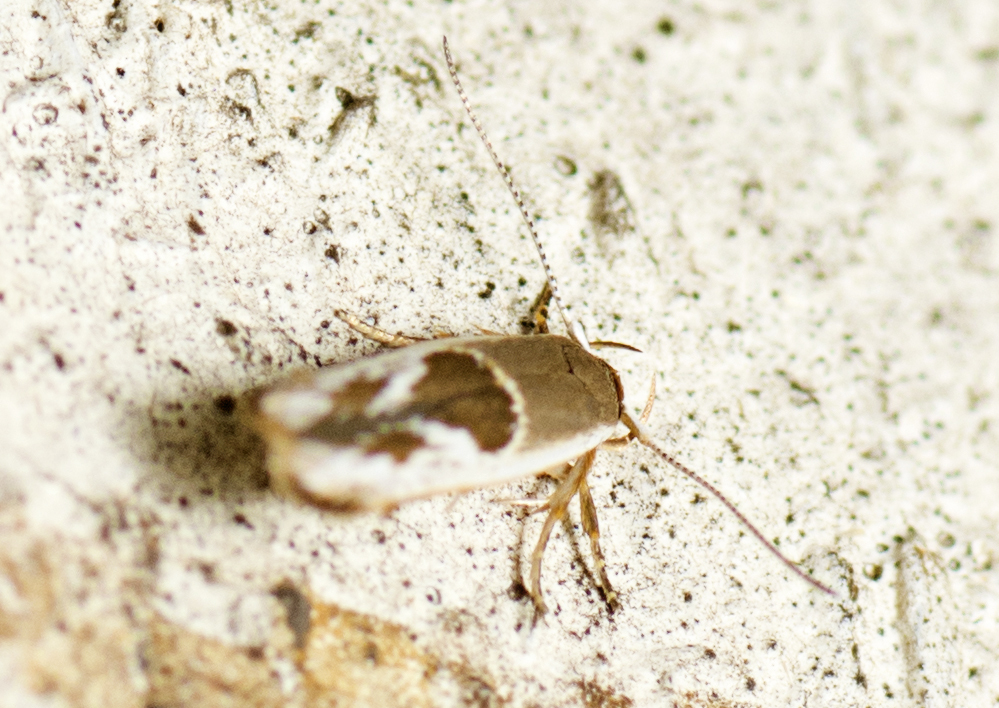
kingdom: Animalia
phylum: Arthropoda
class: Insecta
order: Lepidoptera
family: Stathmopodidae
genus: Stathmopoda
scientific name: Stathmopoda megathyma
